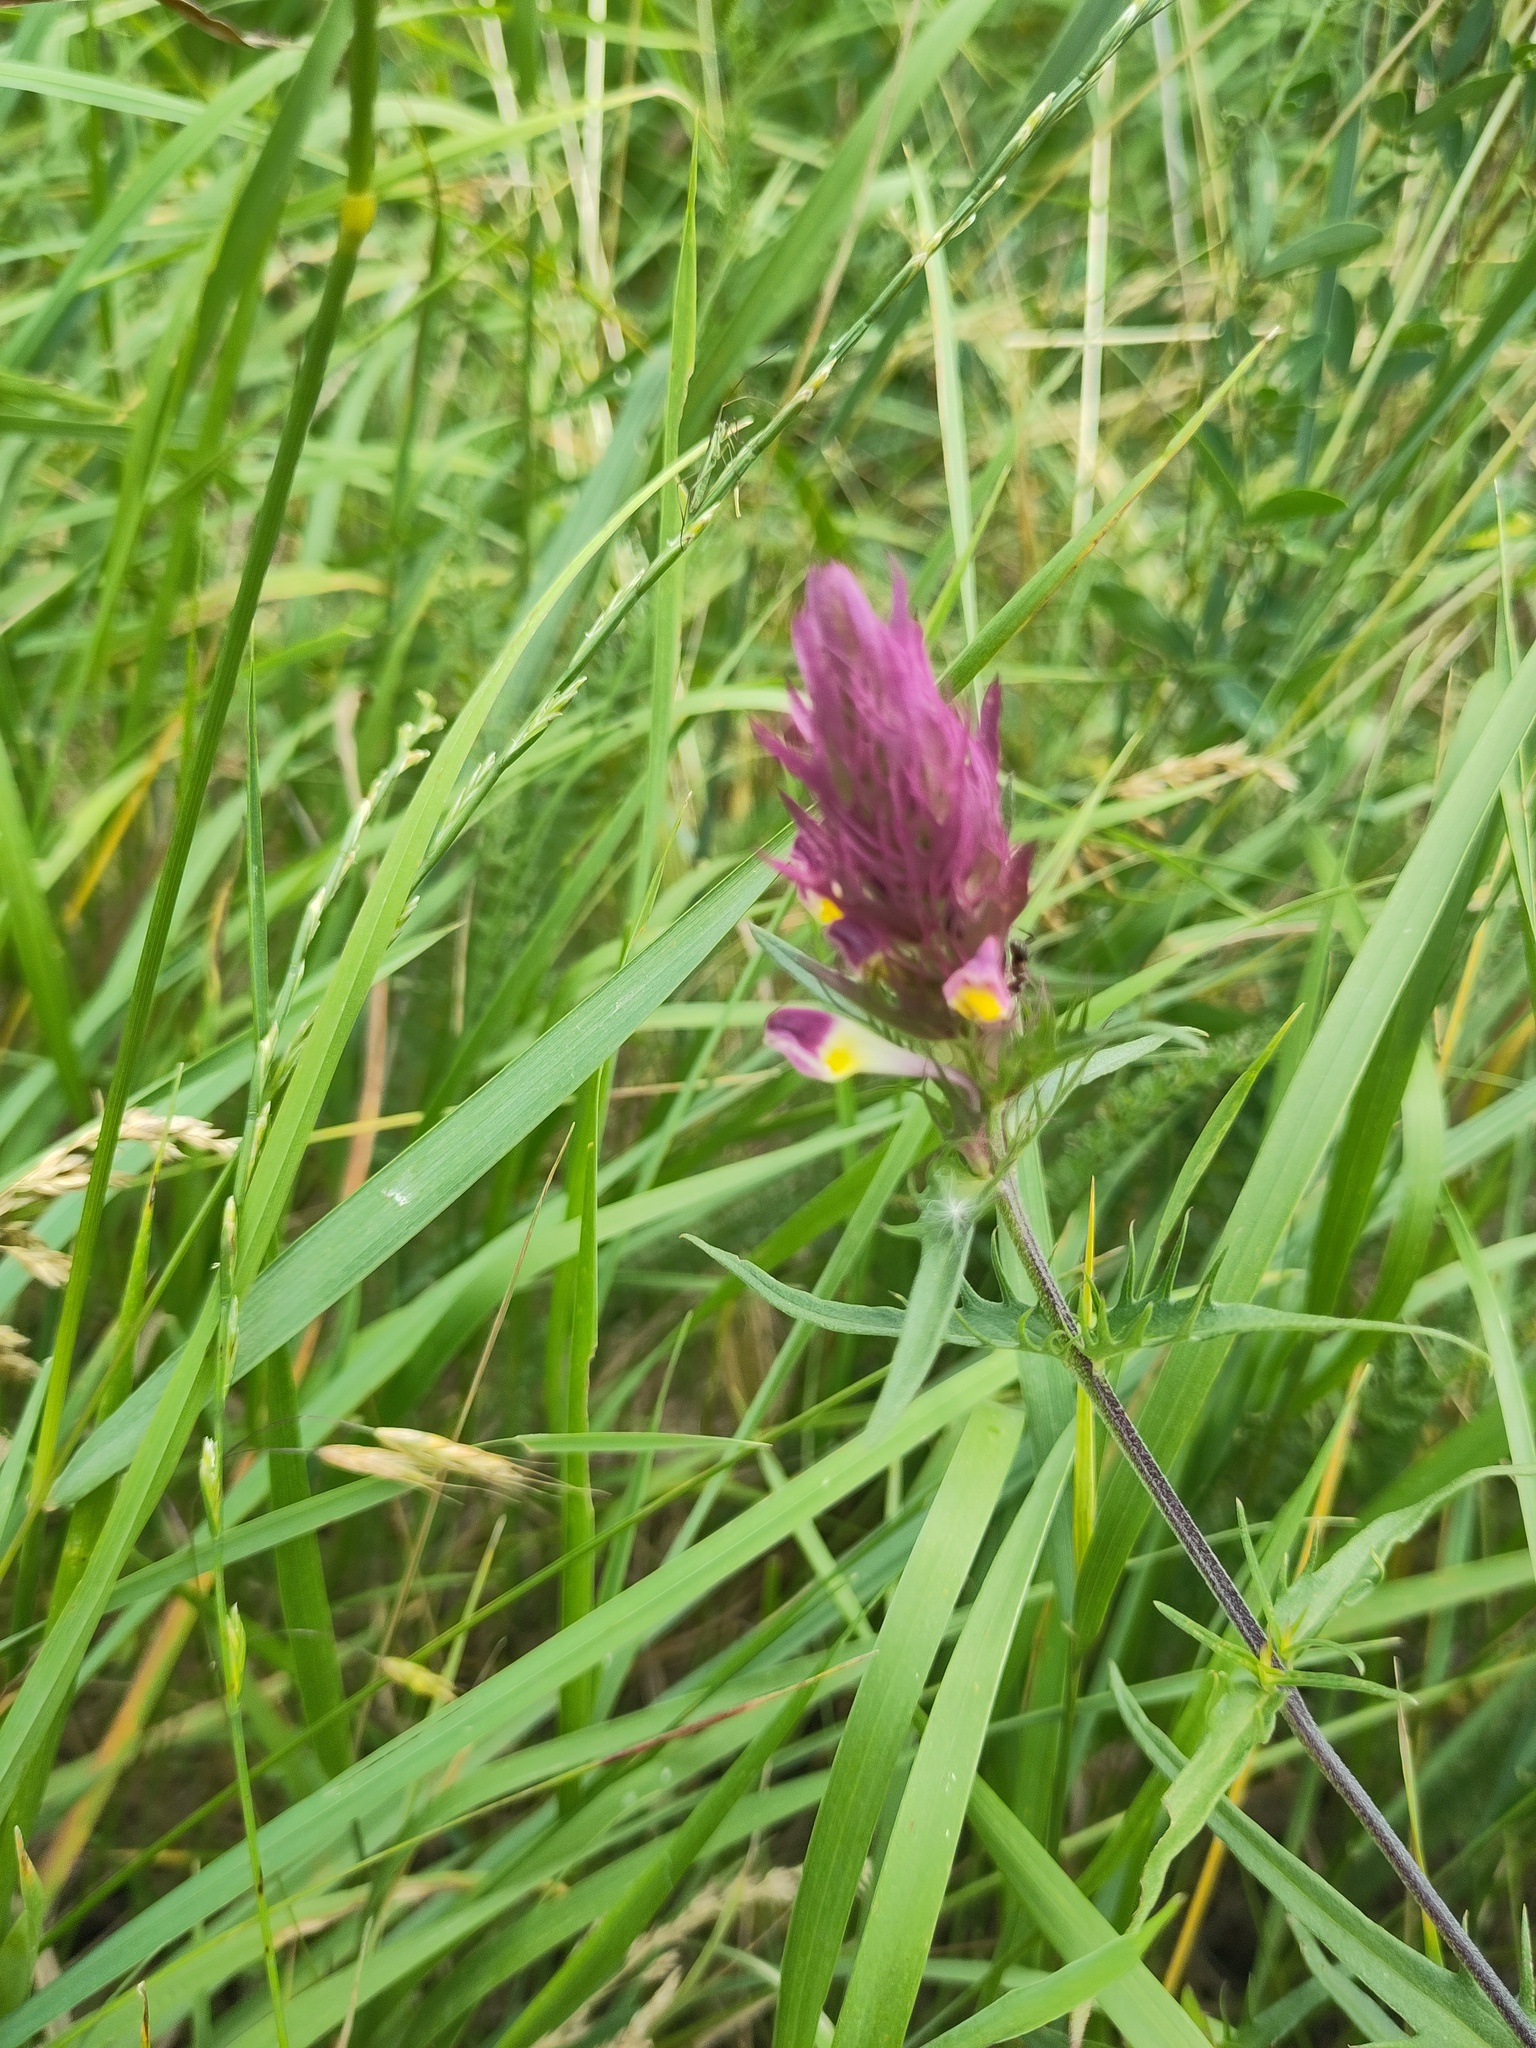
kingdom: Plantae
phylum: Tracheophyta
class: Magnoliopsida
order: Lamiales
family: Orobanchaceae
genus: Melampyrum
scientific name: Melampyrum arvense
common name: Field cow-wheat
